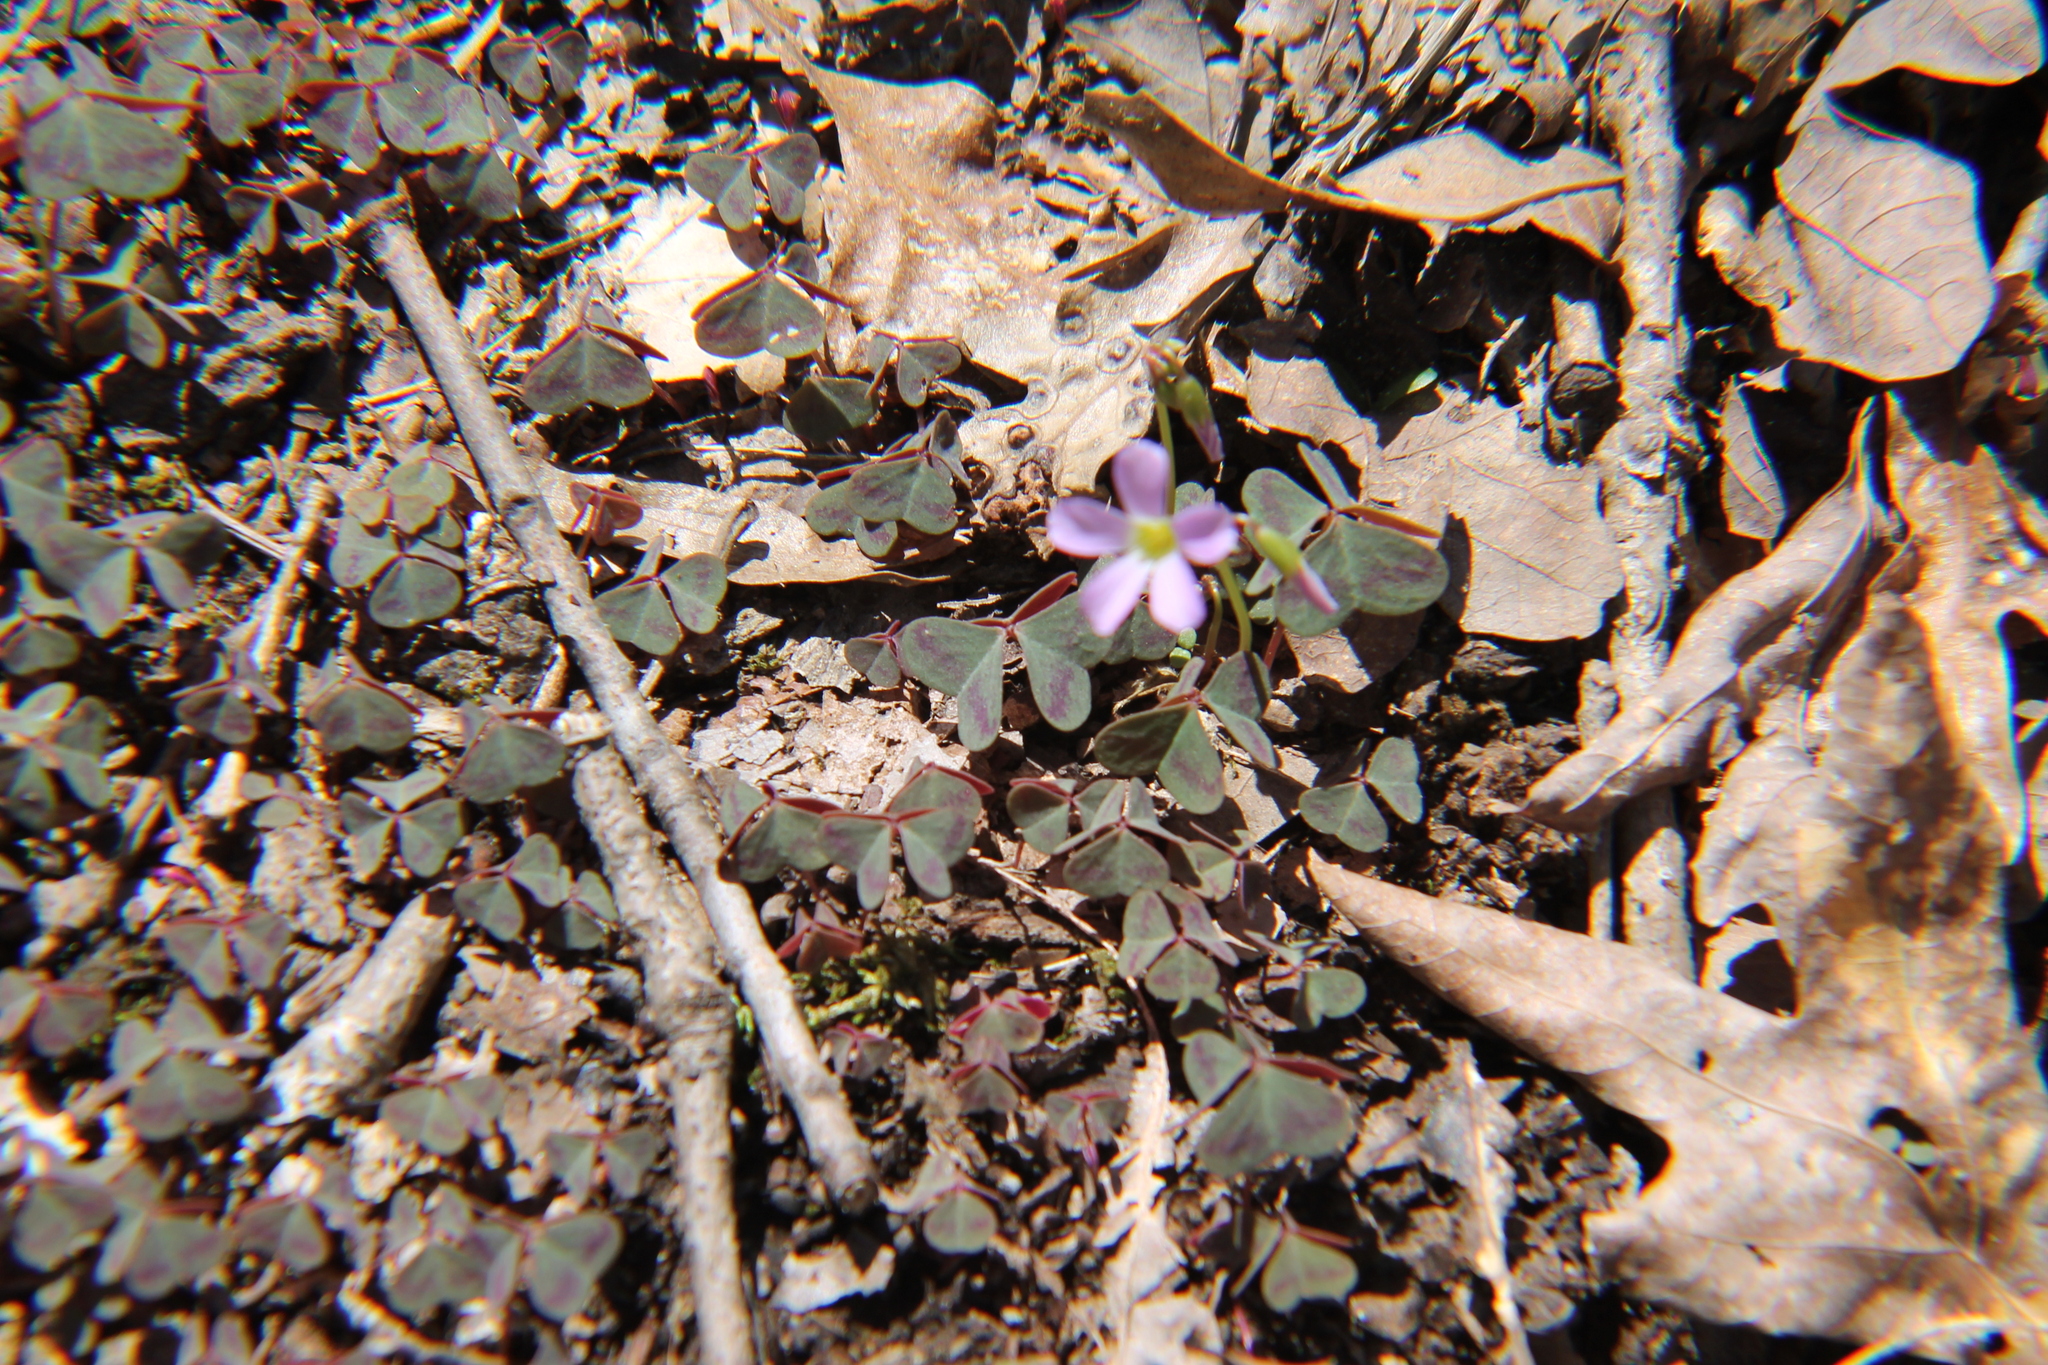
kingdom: Plantae
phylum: Tracheophyta
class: Magnoliopsida
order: Oxalidales
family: Oxalidaceae
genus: Oxalis
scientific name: Oxalis violacea
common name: Violet wood-sorrel
